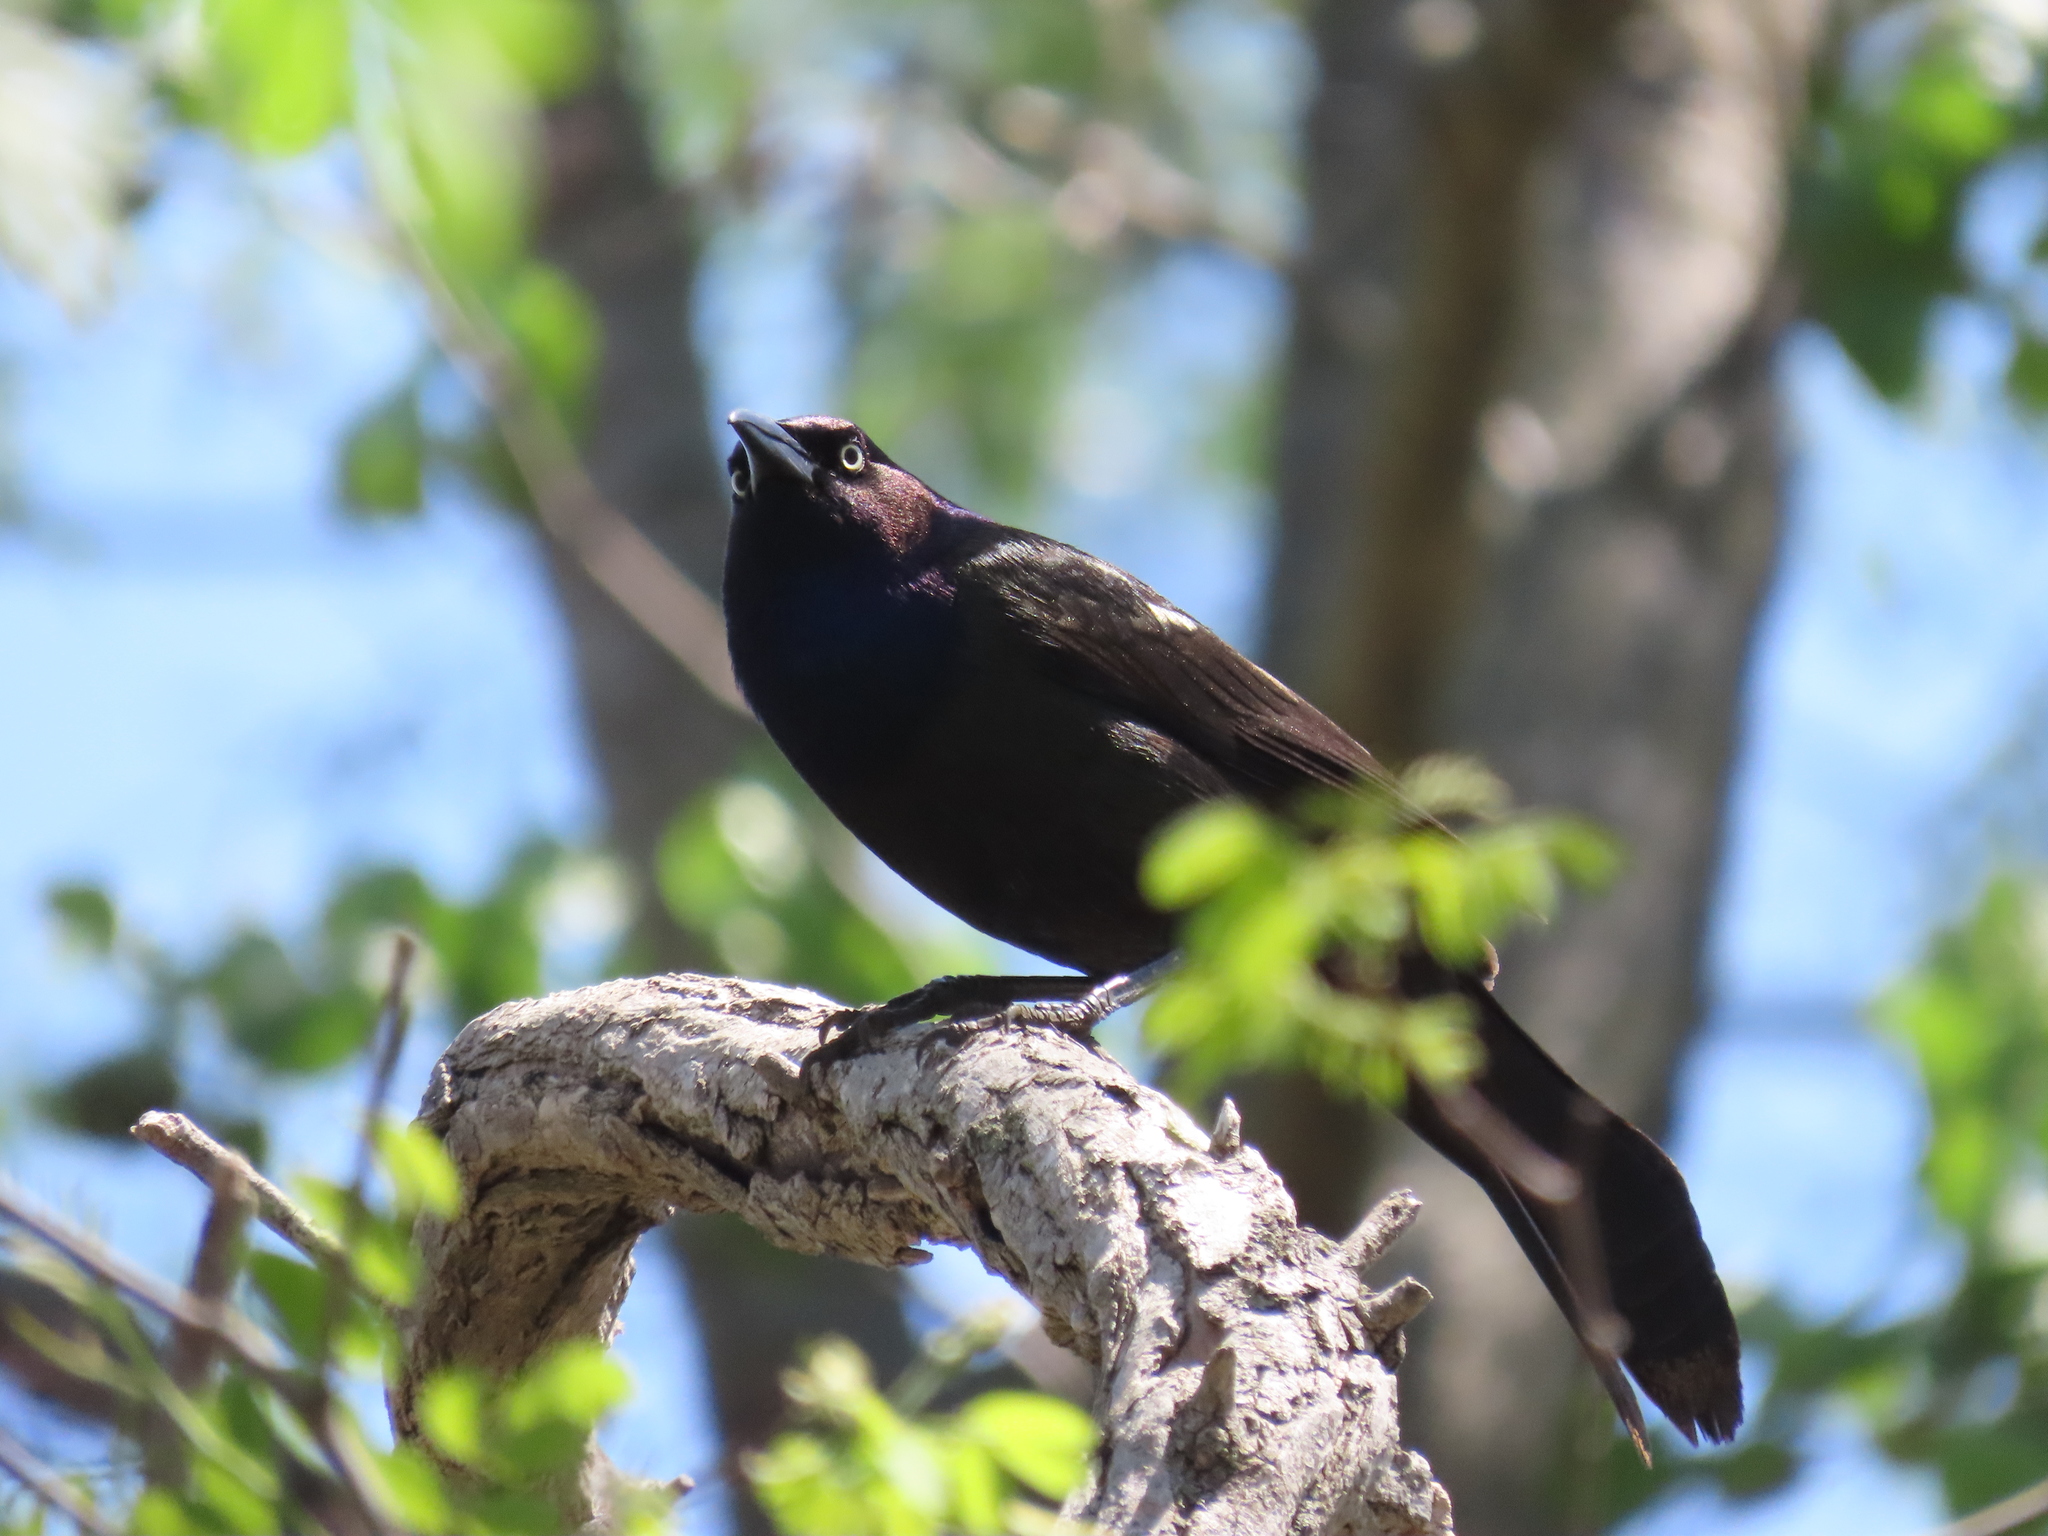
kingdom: Animalia
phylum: Chordata
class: Aves
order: Passeriformes
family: Icteridae
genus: Quiscalus
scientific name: Quiscalus quiscula
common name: Common grackle
